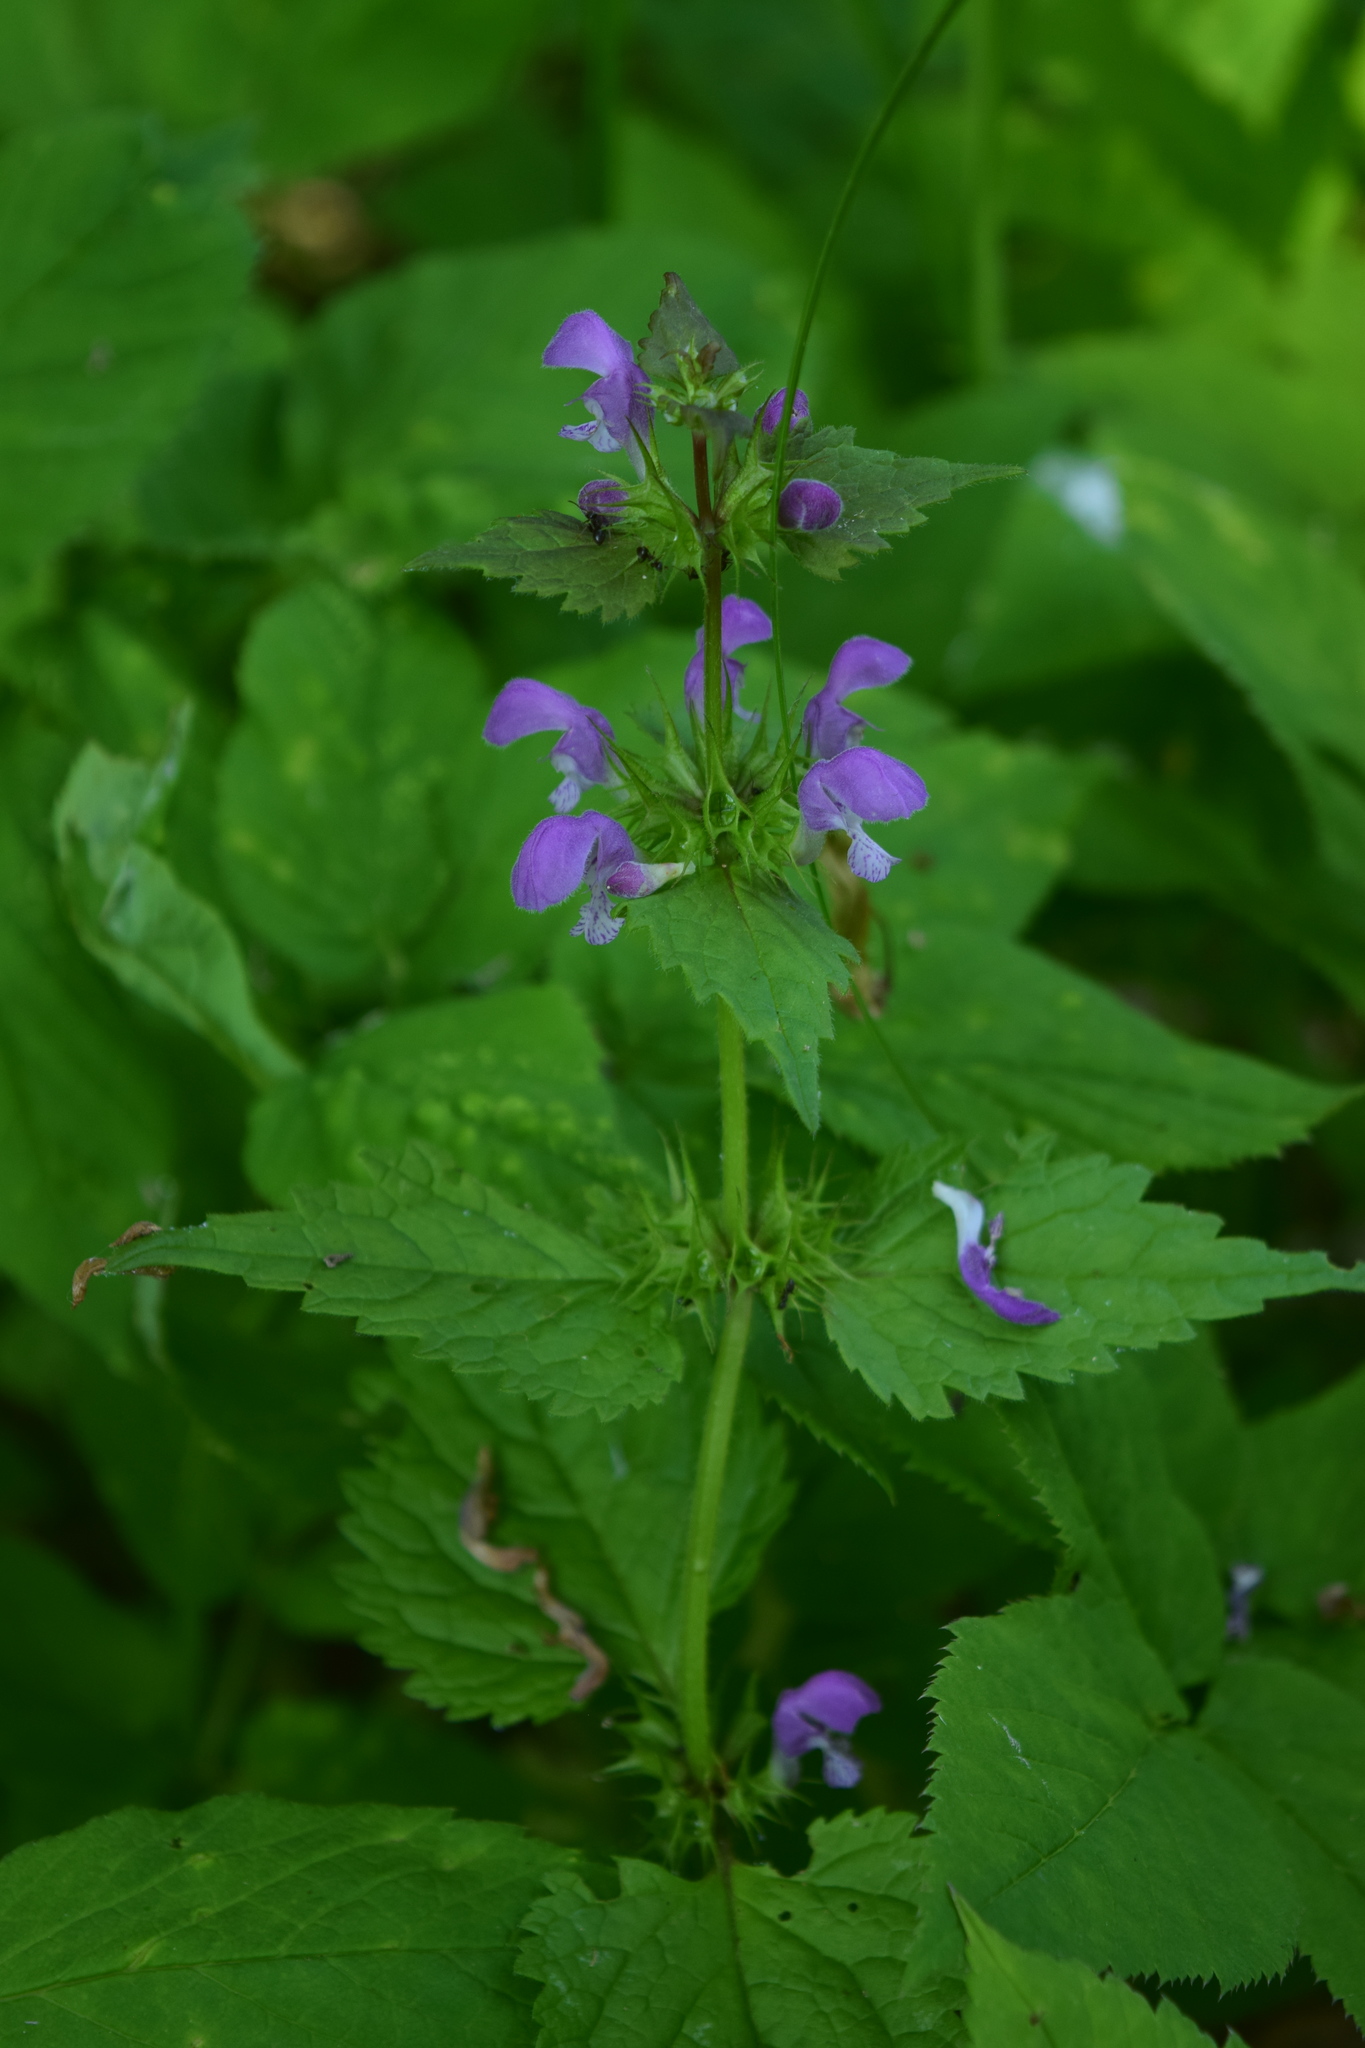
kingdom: Plantae
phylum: Tracheophyta
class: Magnoliopsida
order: Lamiales
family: Lamiaceae
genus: Lamium
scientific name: Lamium maculatum
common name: Spotted dead-nettle
